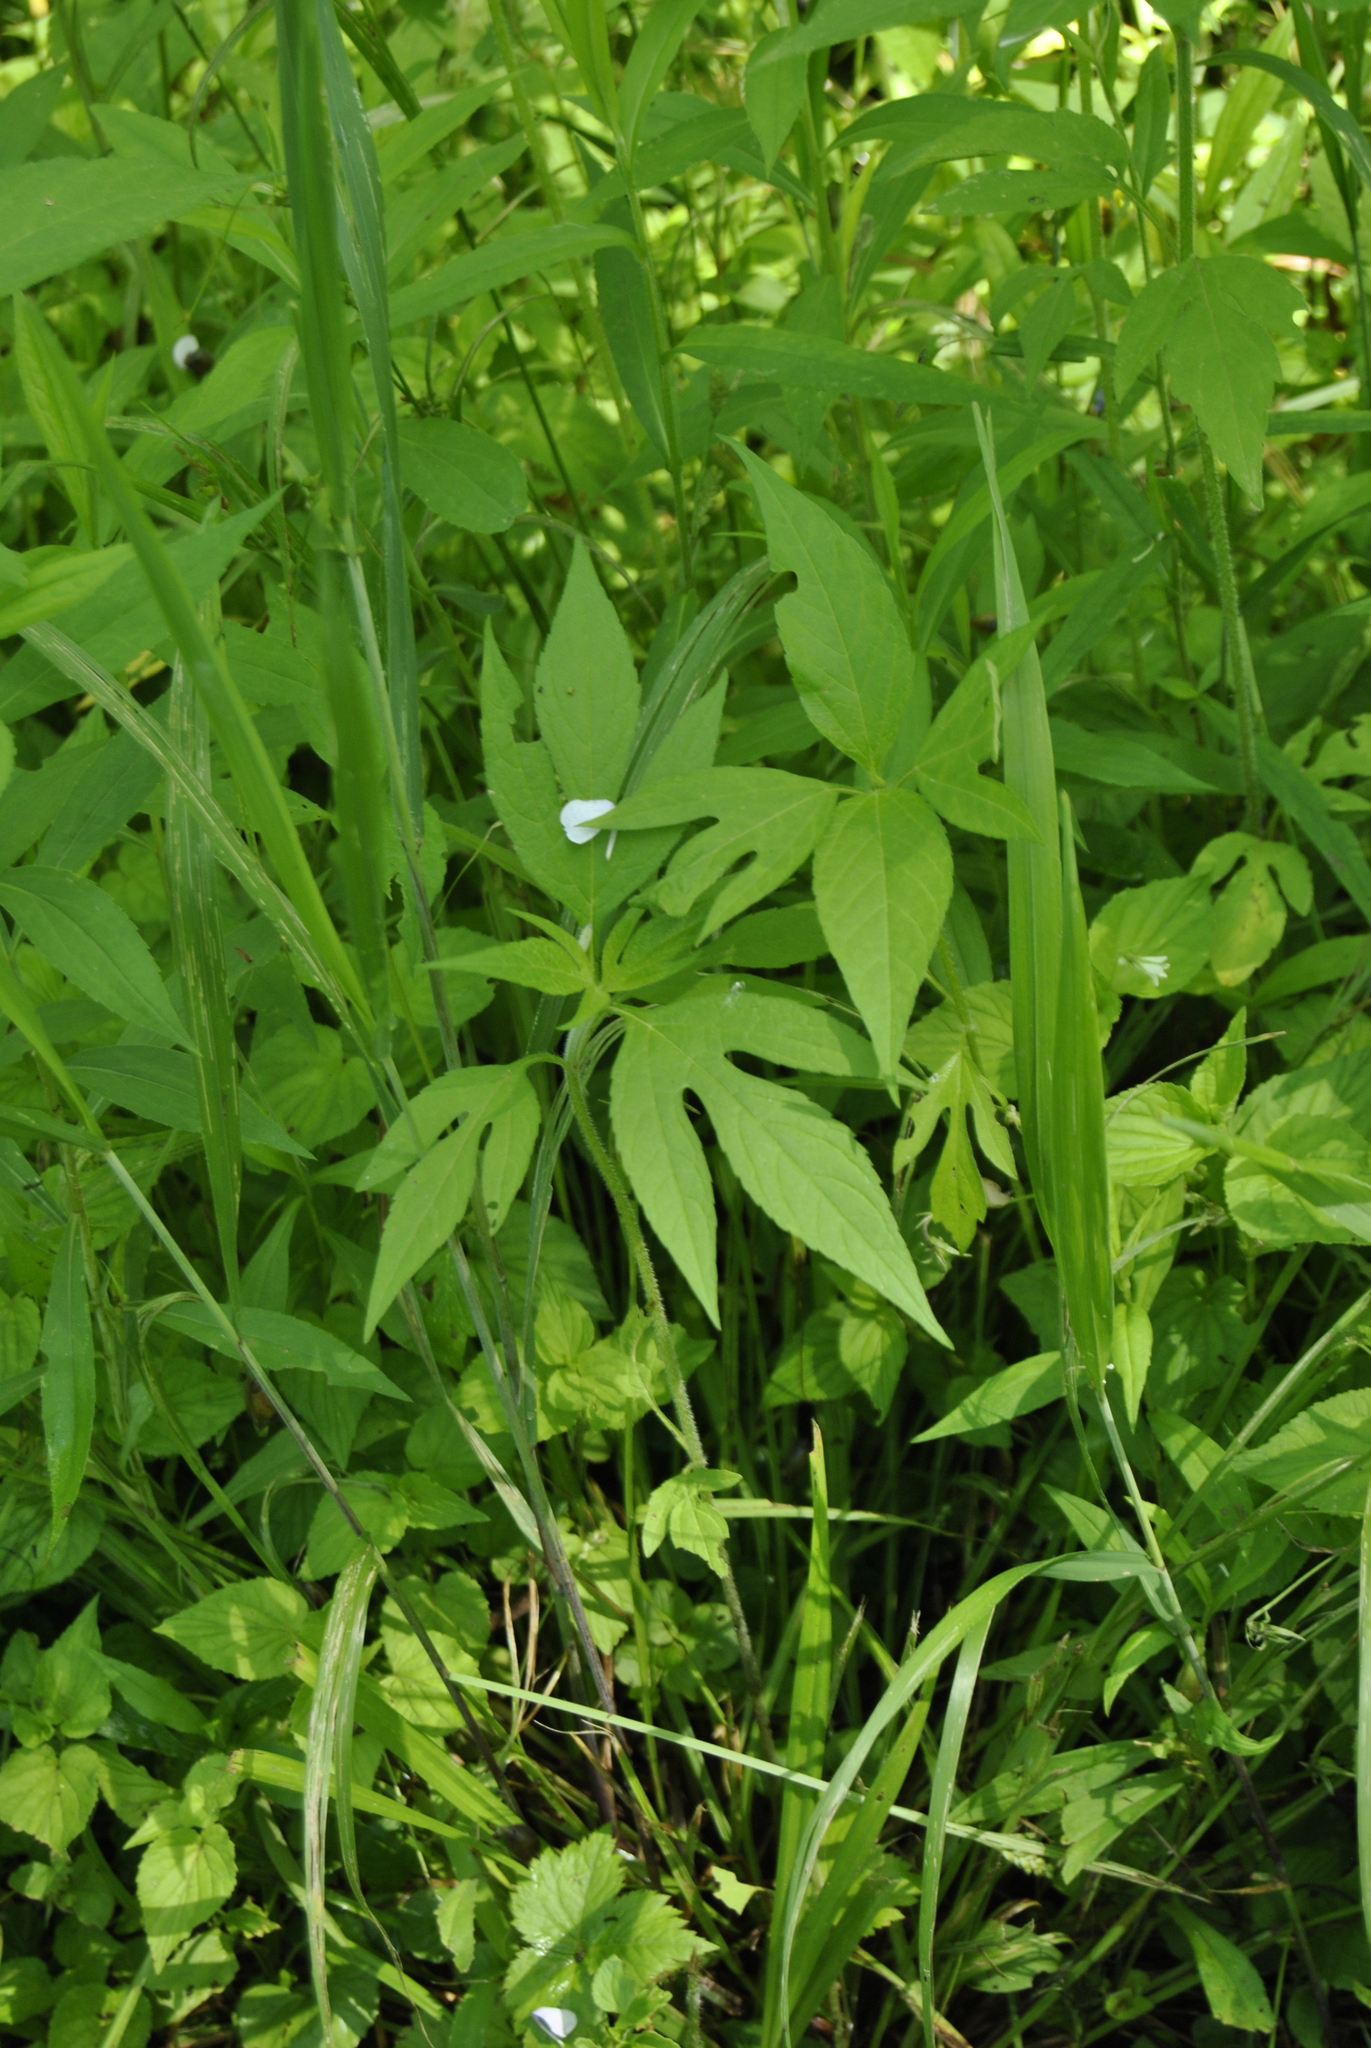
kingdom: Plantae
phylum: Tracheophyta
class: Magnoliopsida
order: Asterales
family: Asteraceae
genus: Ambrosia
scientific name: Ambrosia trifida
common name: Giant ragweed
